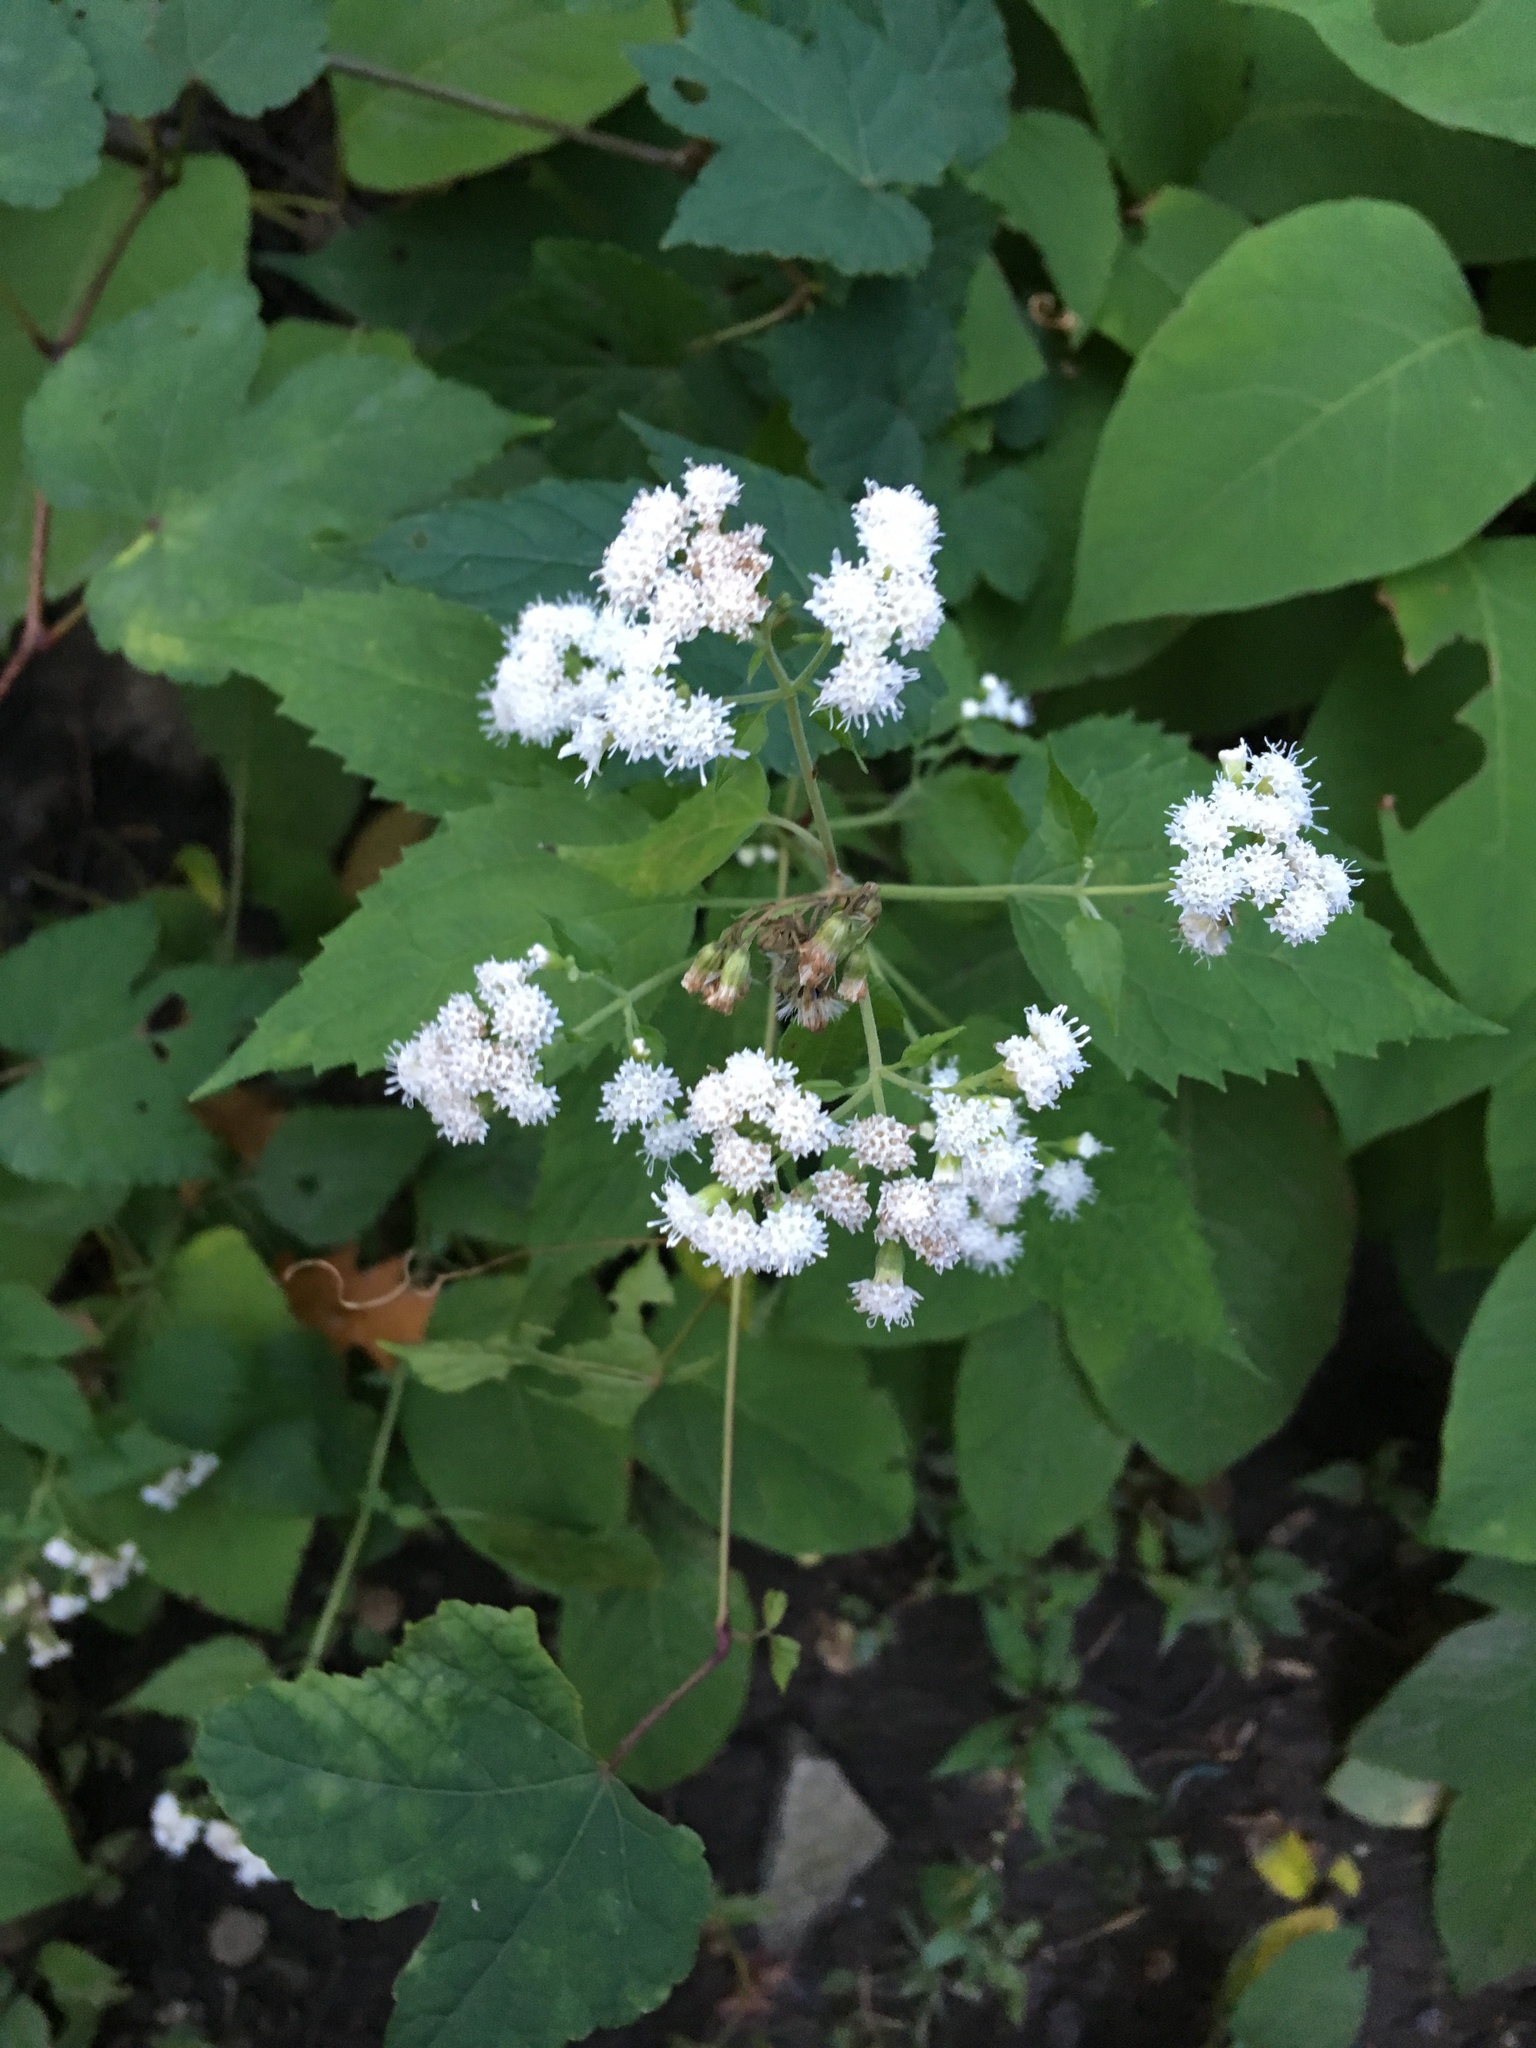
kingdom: Plantae
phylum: Tracheophyta
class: Magnoliopsida
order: Asterales
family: Asteraceae
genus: Ageratina
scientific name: Ageratina altissima
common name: White snakeroot
